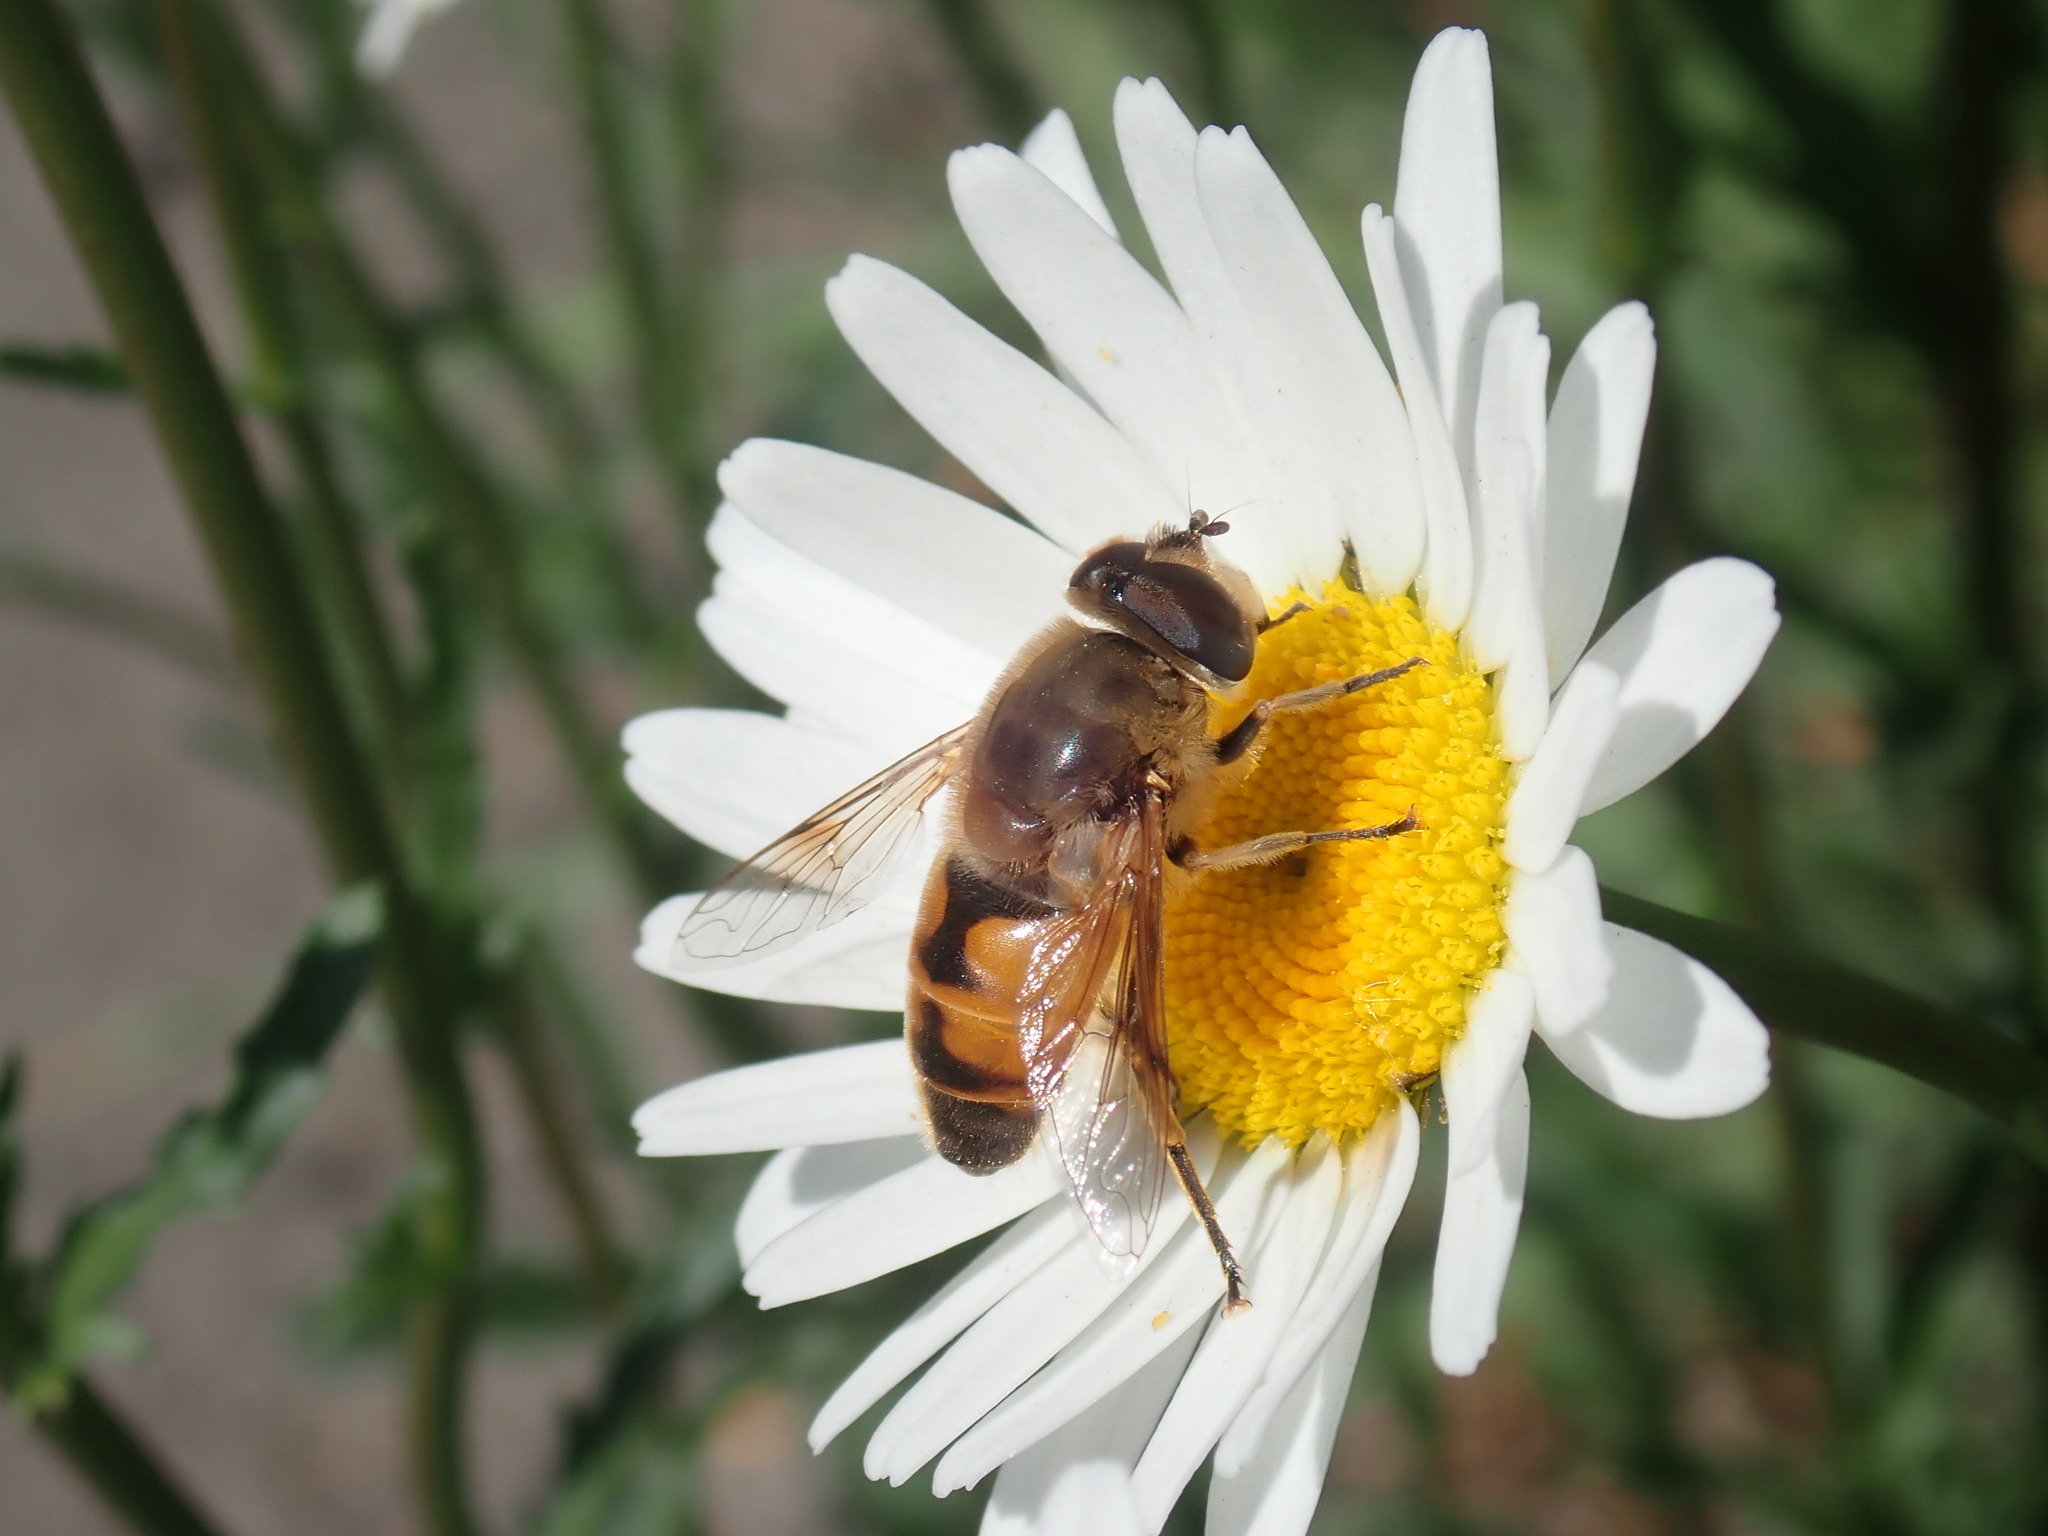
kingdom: Animalia
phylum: Arthropoda
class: Insecta
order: Diptera
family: Syrphidae
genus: Eristalis
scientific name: Eristalis tenax
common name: Drone fly
